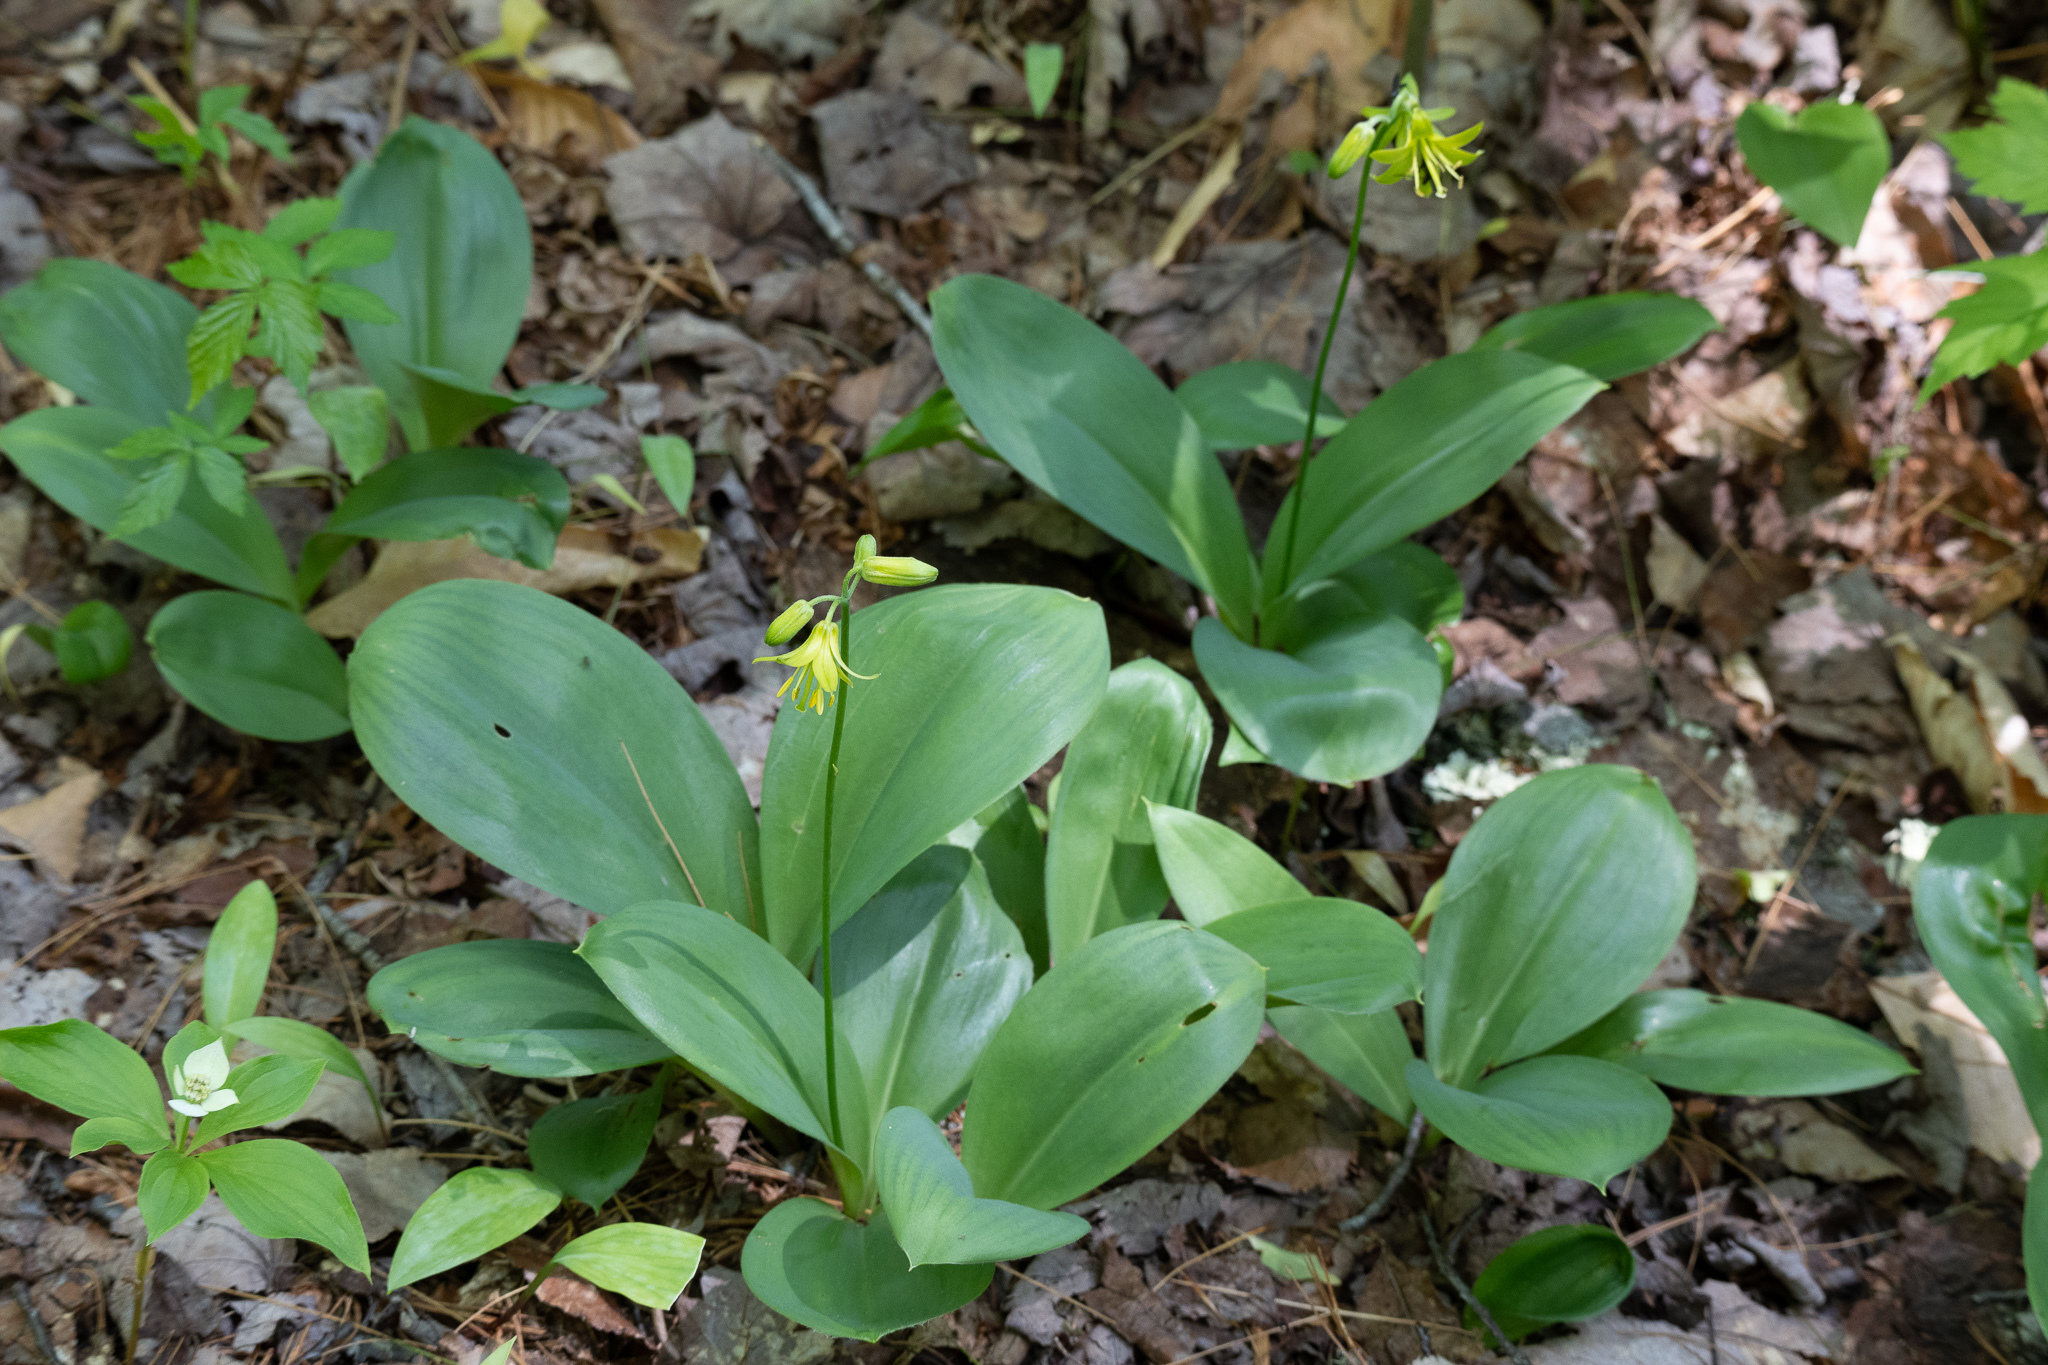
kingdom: Plantae
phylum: Tracheophyta
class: Liliopsida
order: Liliales
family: Liliaceae
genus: Clintonia
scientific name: Clintonia borealis
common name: Yellow clintonia
